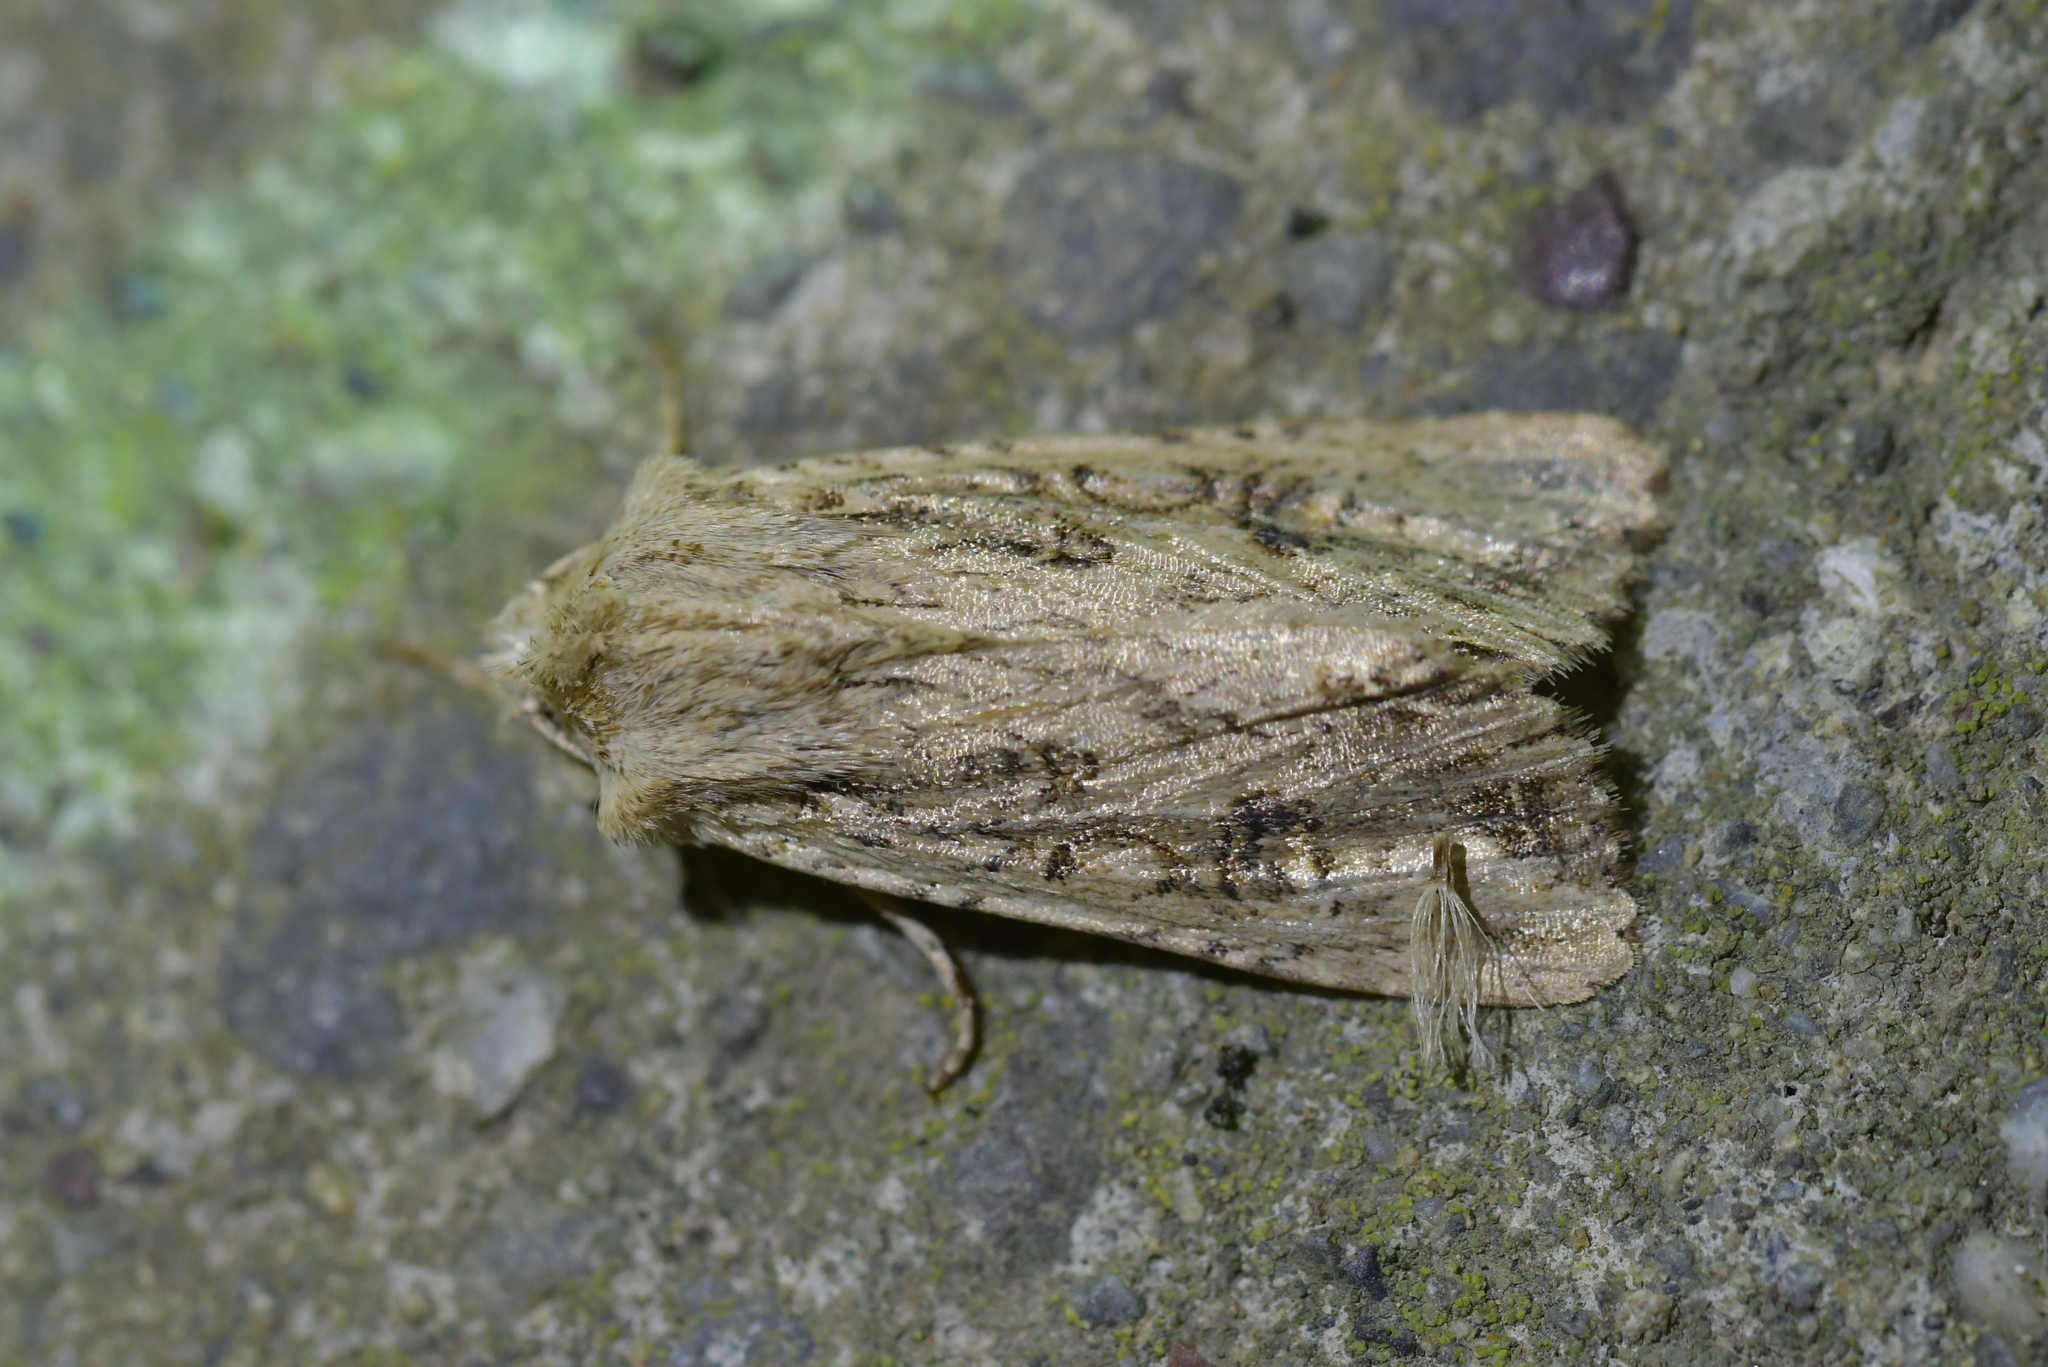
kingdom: Animalia
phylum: Arthropoda
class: Insecta
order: Lepidoptera
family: Noctuidae
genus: Ichneutica
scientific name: Ichneutica lignana
